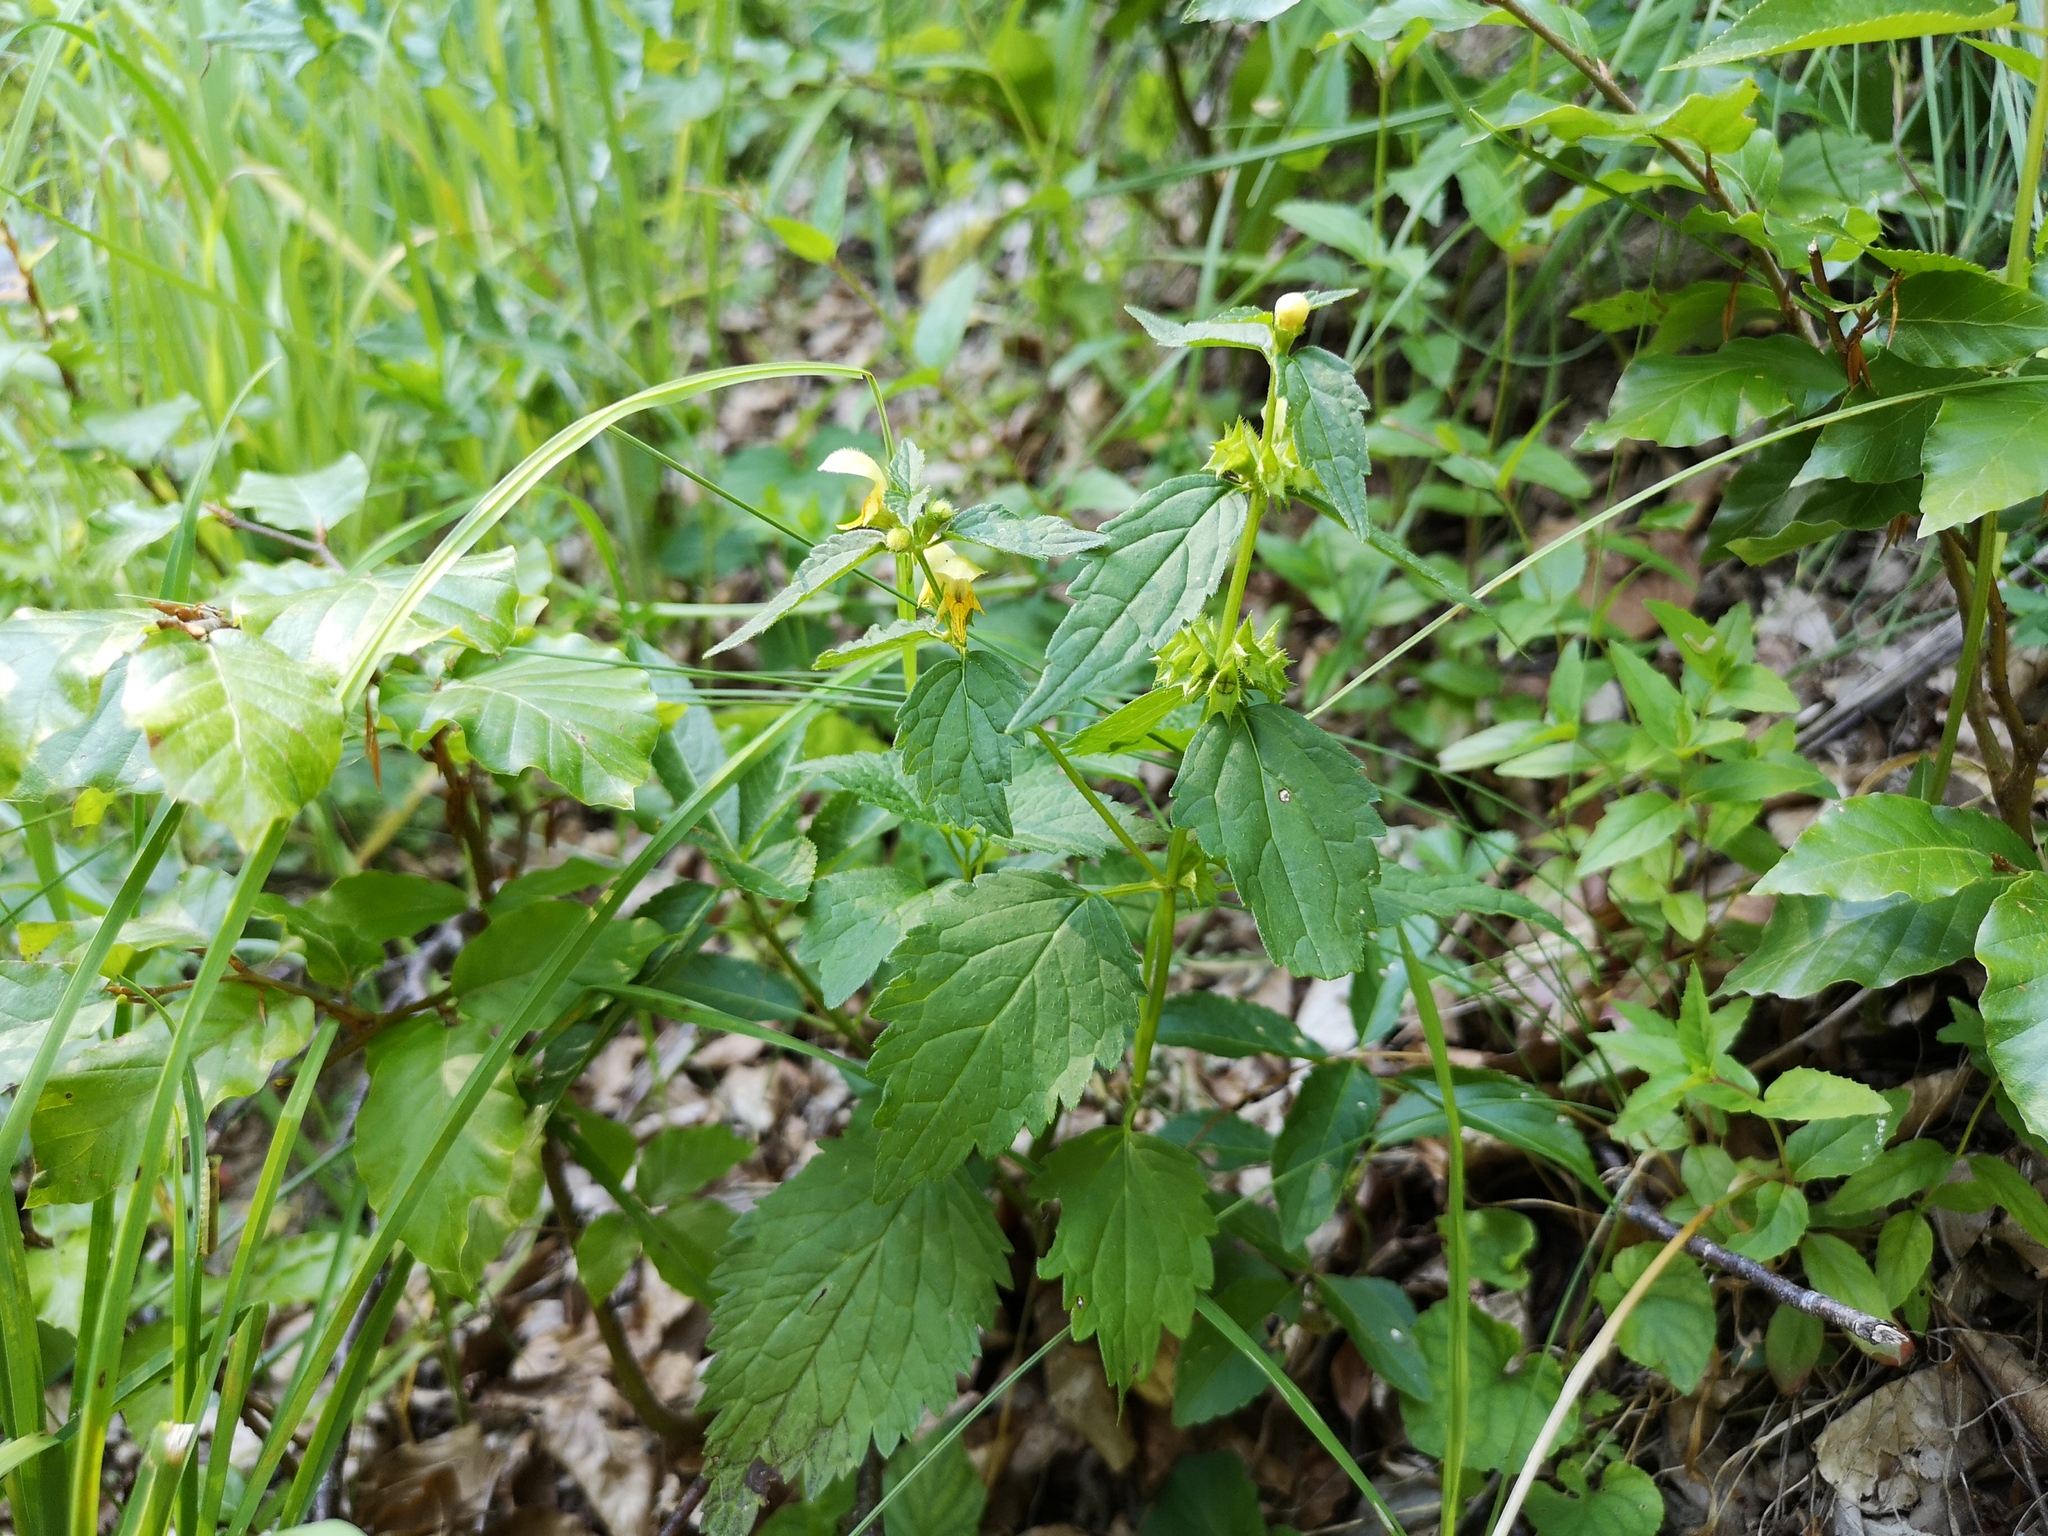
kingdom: Plantae
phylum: Tracheophyta
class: Magnoliopsida
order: Lamiales
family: Lamiaceae
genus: Lamium
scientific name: Lamium galeobdolon
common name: Yellow archangel
